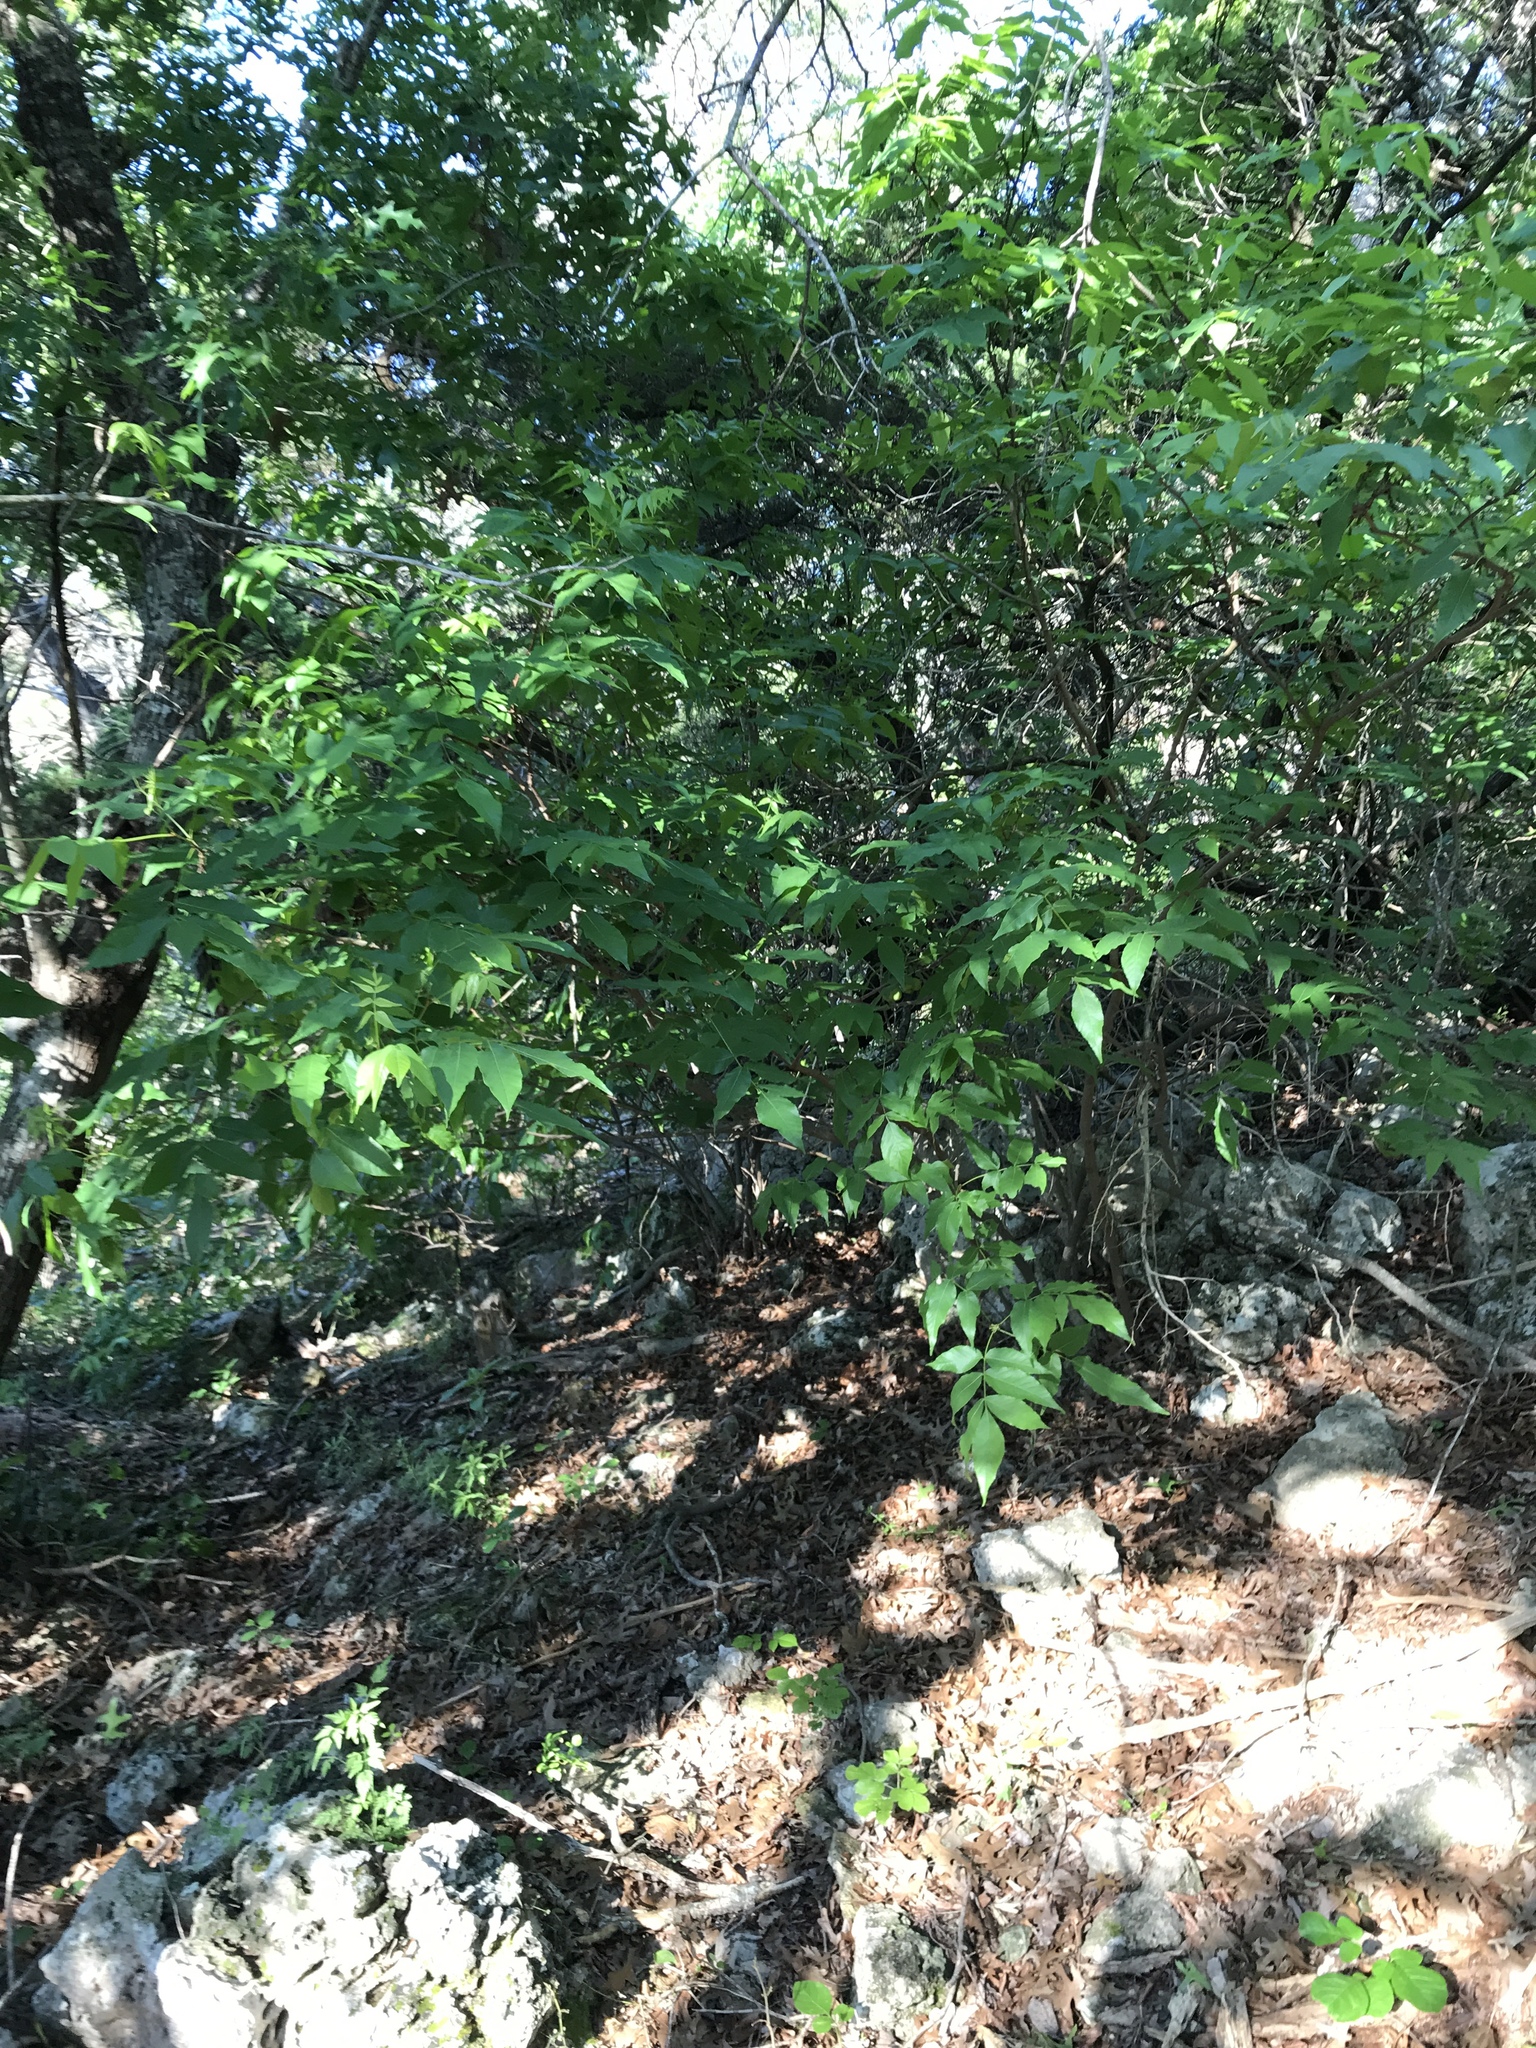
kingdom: Plantae
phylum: Tracheophyta
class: Magnoliopsida
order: Sapindales
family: Sapindaceae
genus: Ungnadia
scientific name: Ungnadia speciosa
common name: Texas-buckeye
